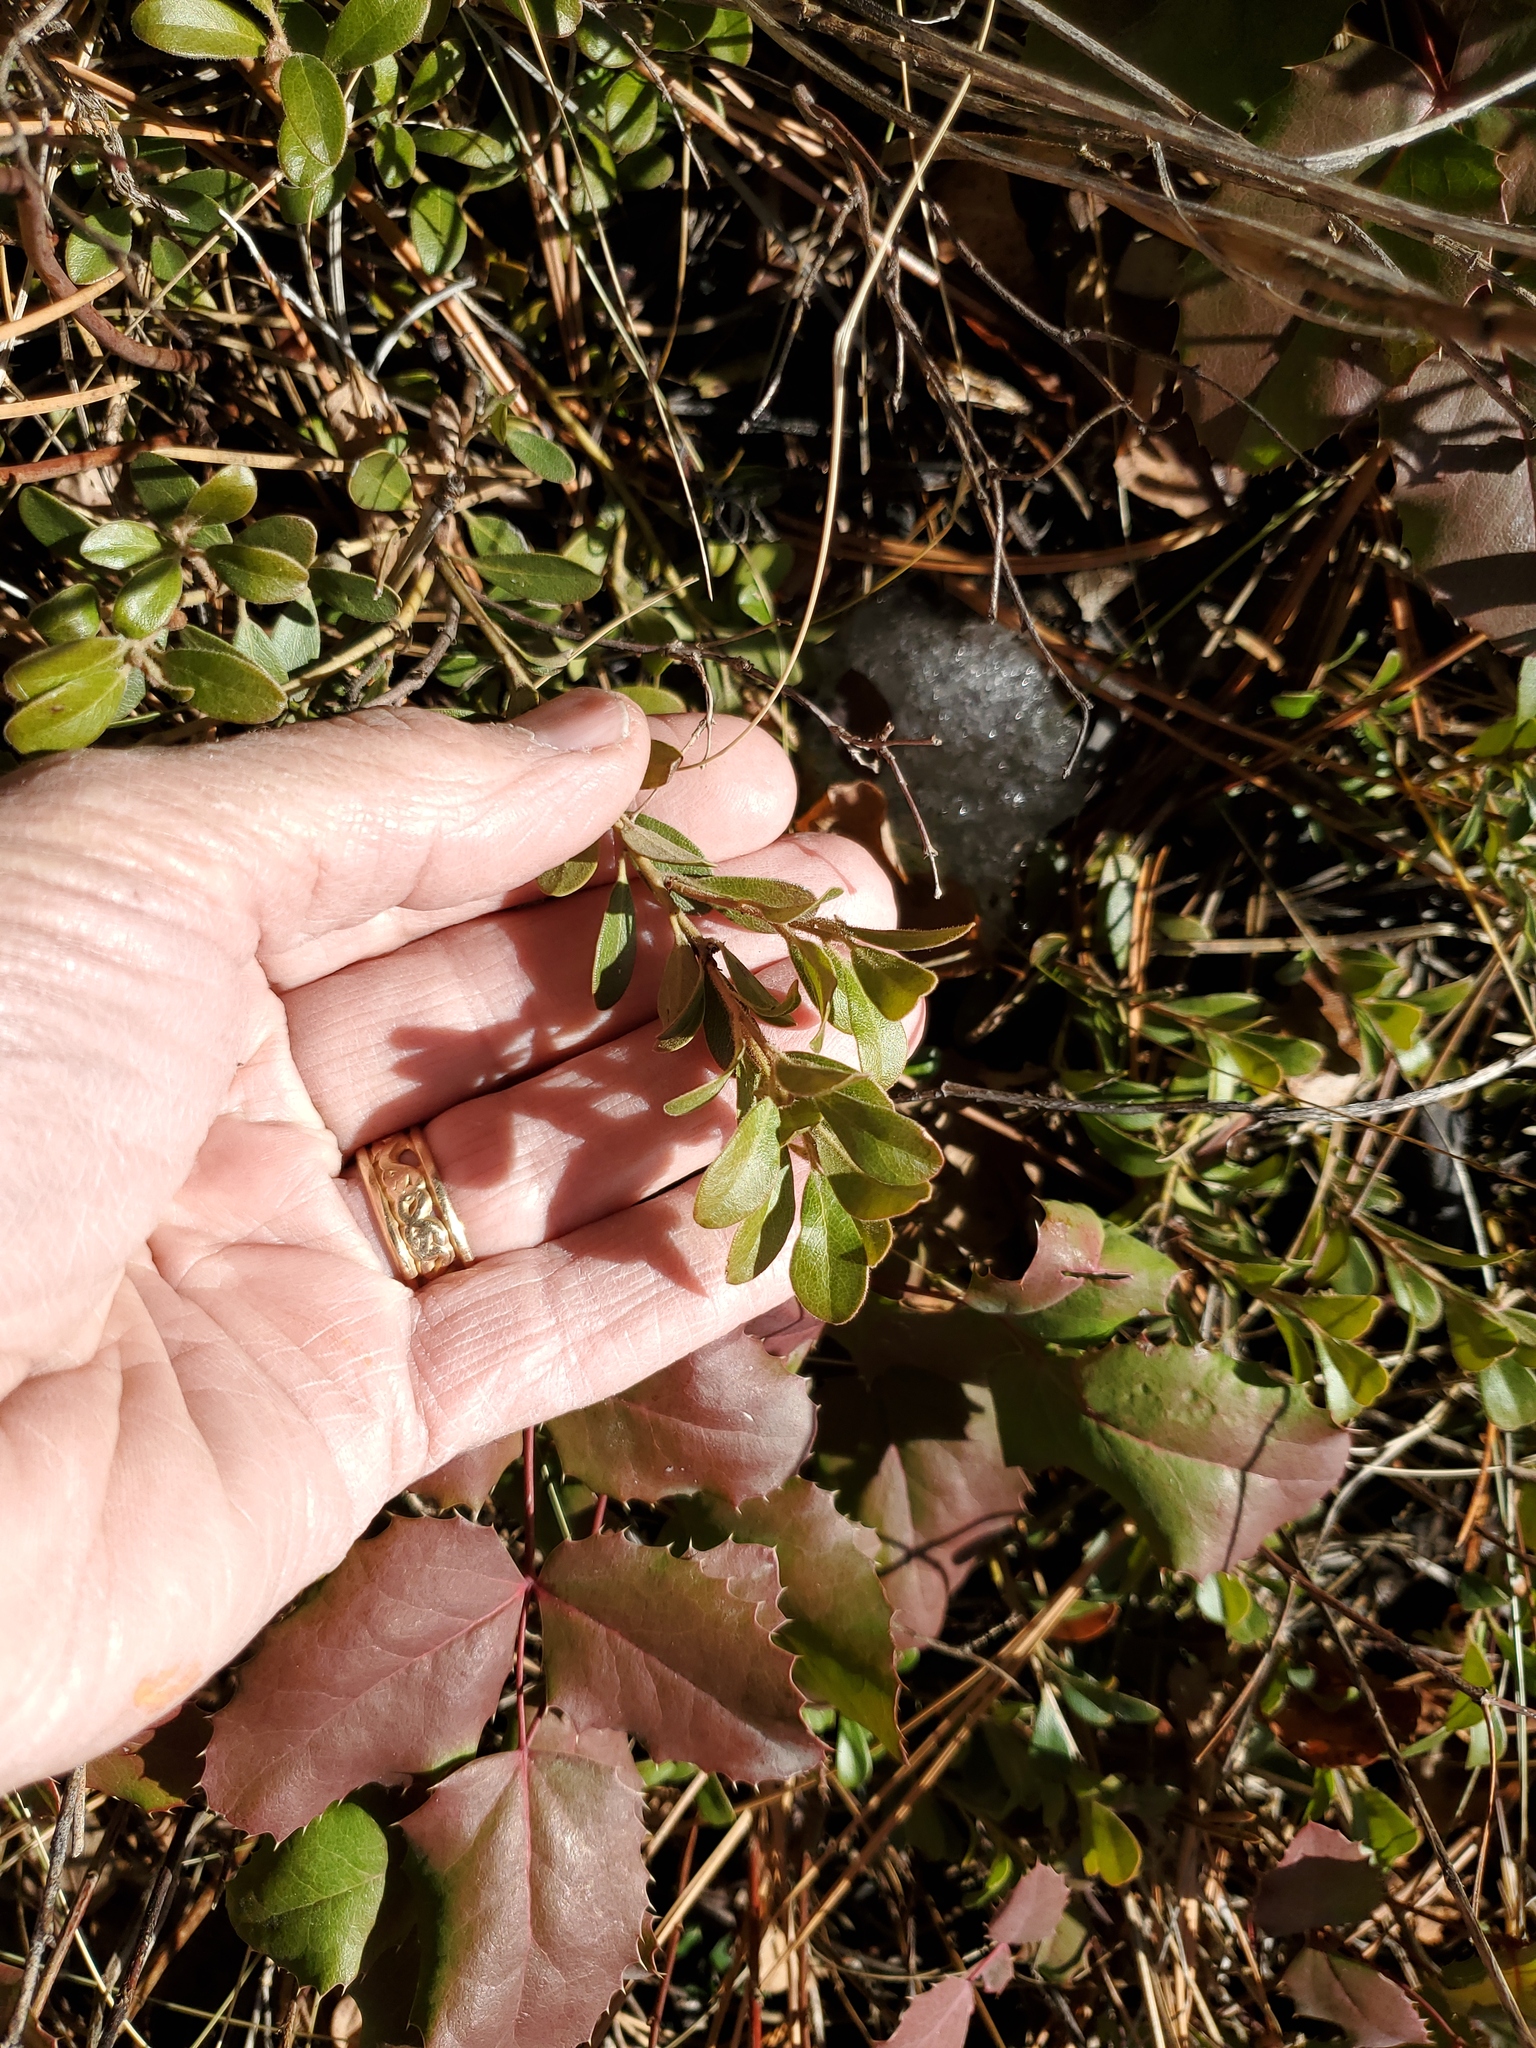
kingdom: Plantae
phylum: Tracheophyta
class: Magnoliopsida
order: Ericales
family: Ericaceae
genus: Arctostaphylos
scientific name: Arctostaphylos uva-ursi
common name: Bearberry
